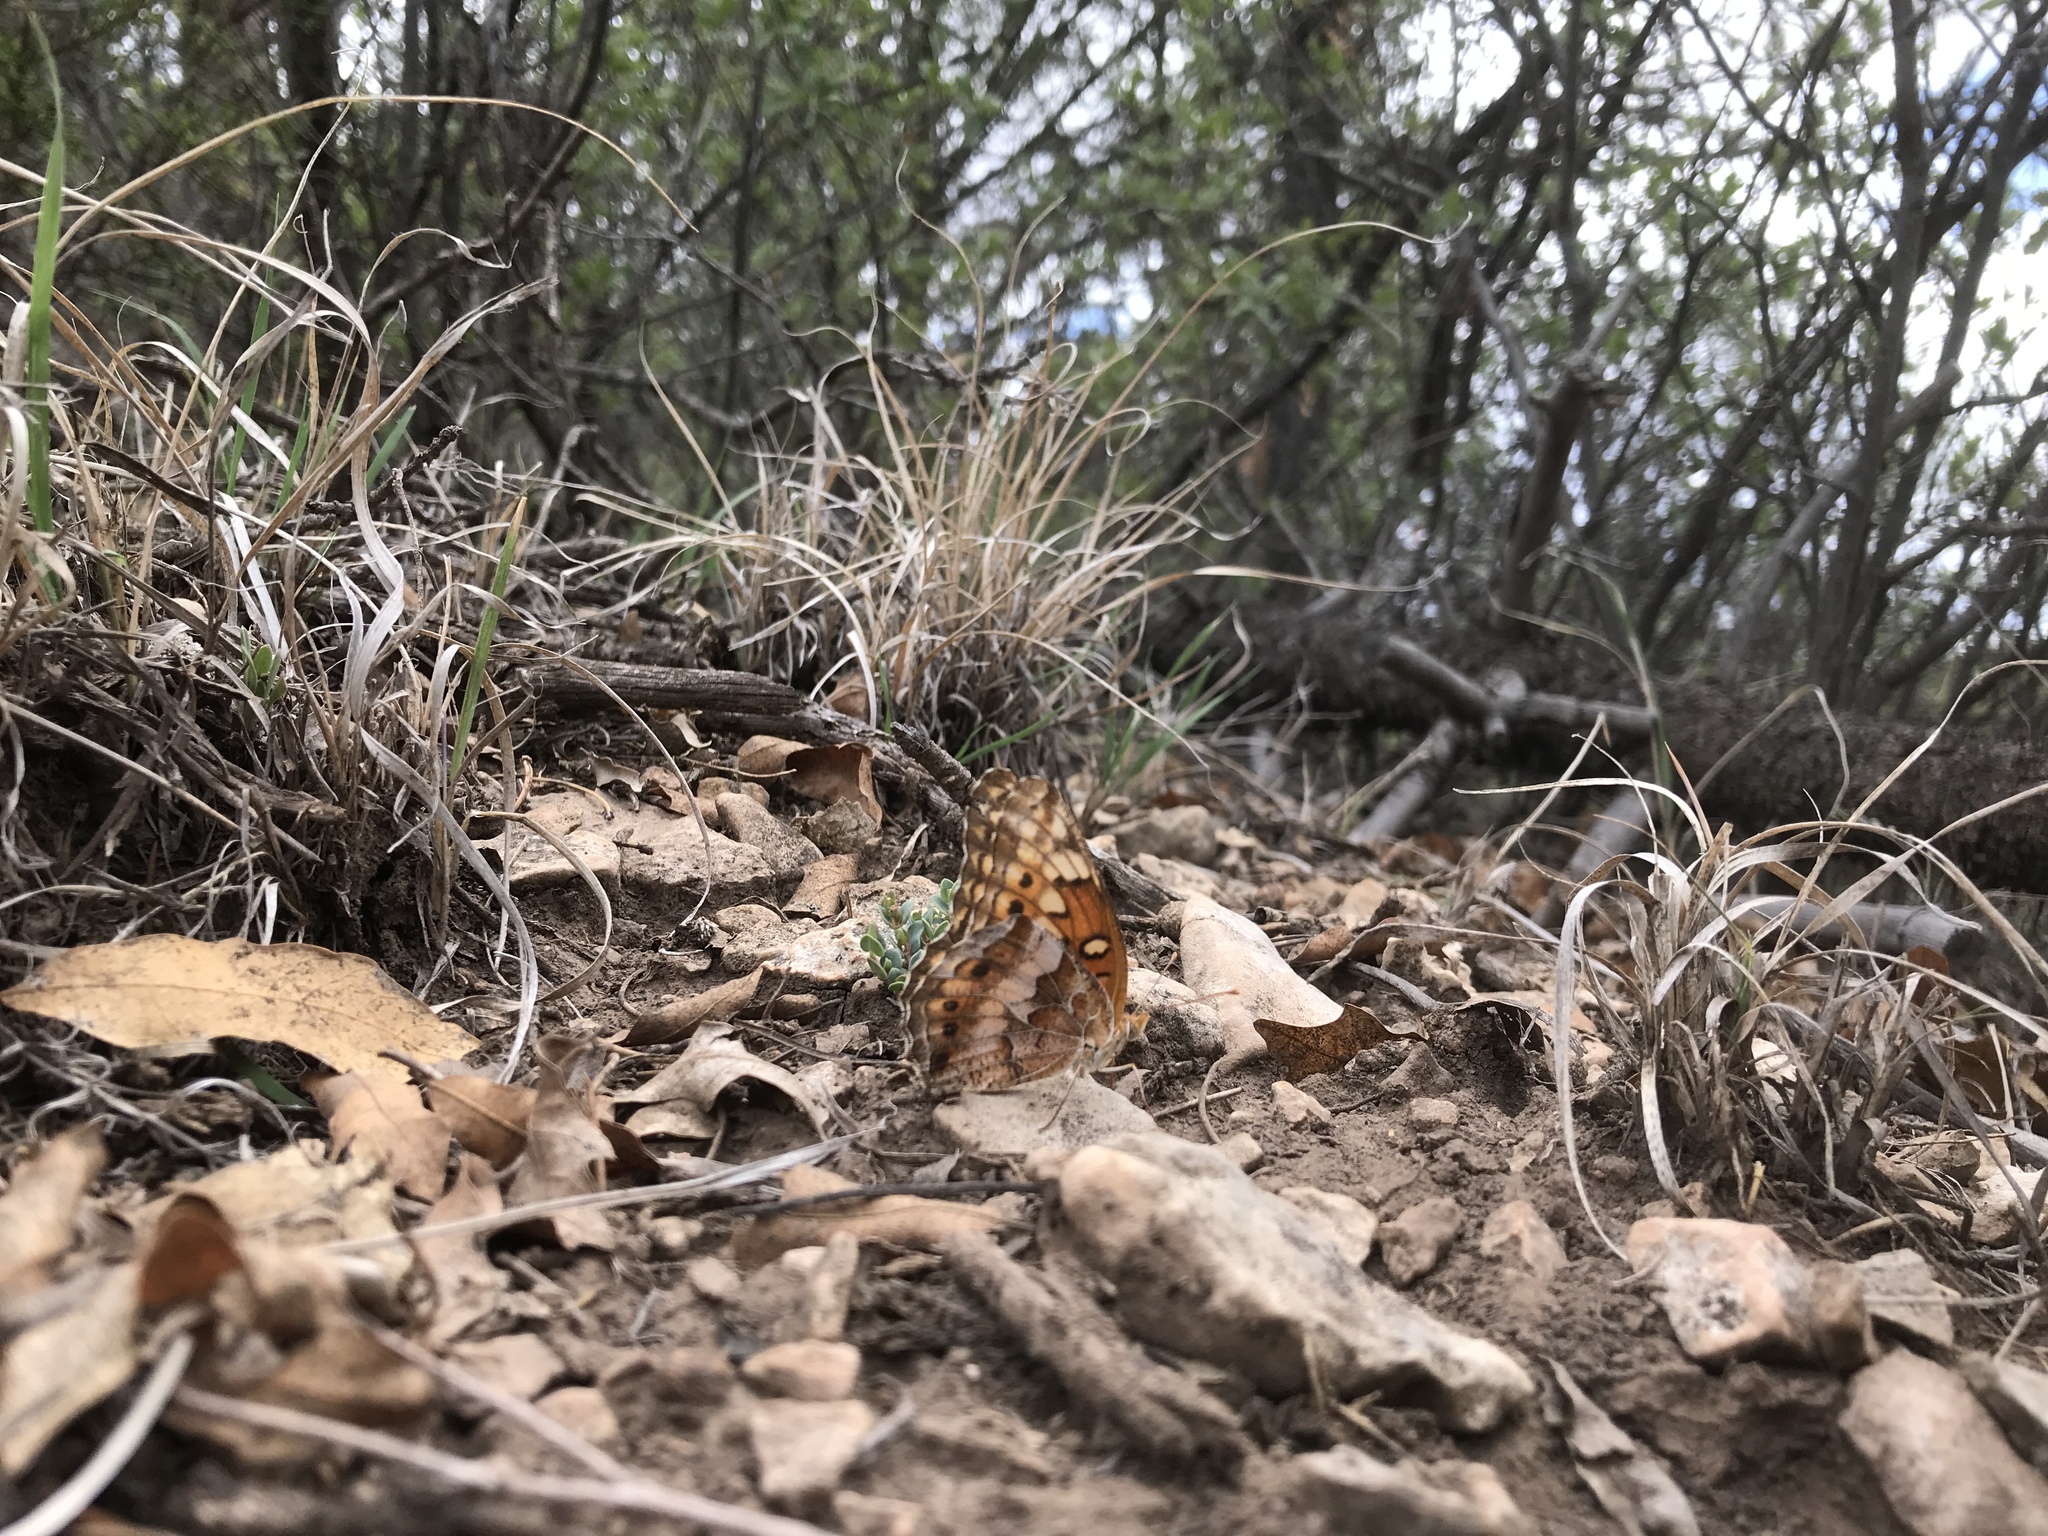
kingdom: Animalia
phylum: Arthropoda
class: Insecta
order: Lepidoptera
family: Nymphalidae
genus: Euptoieta
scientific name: Euptoieta claudia
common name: Variegated fritillary
